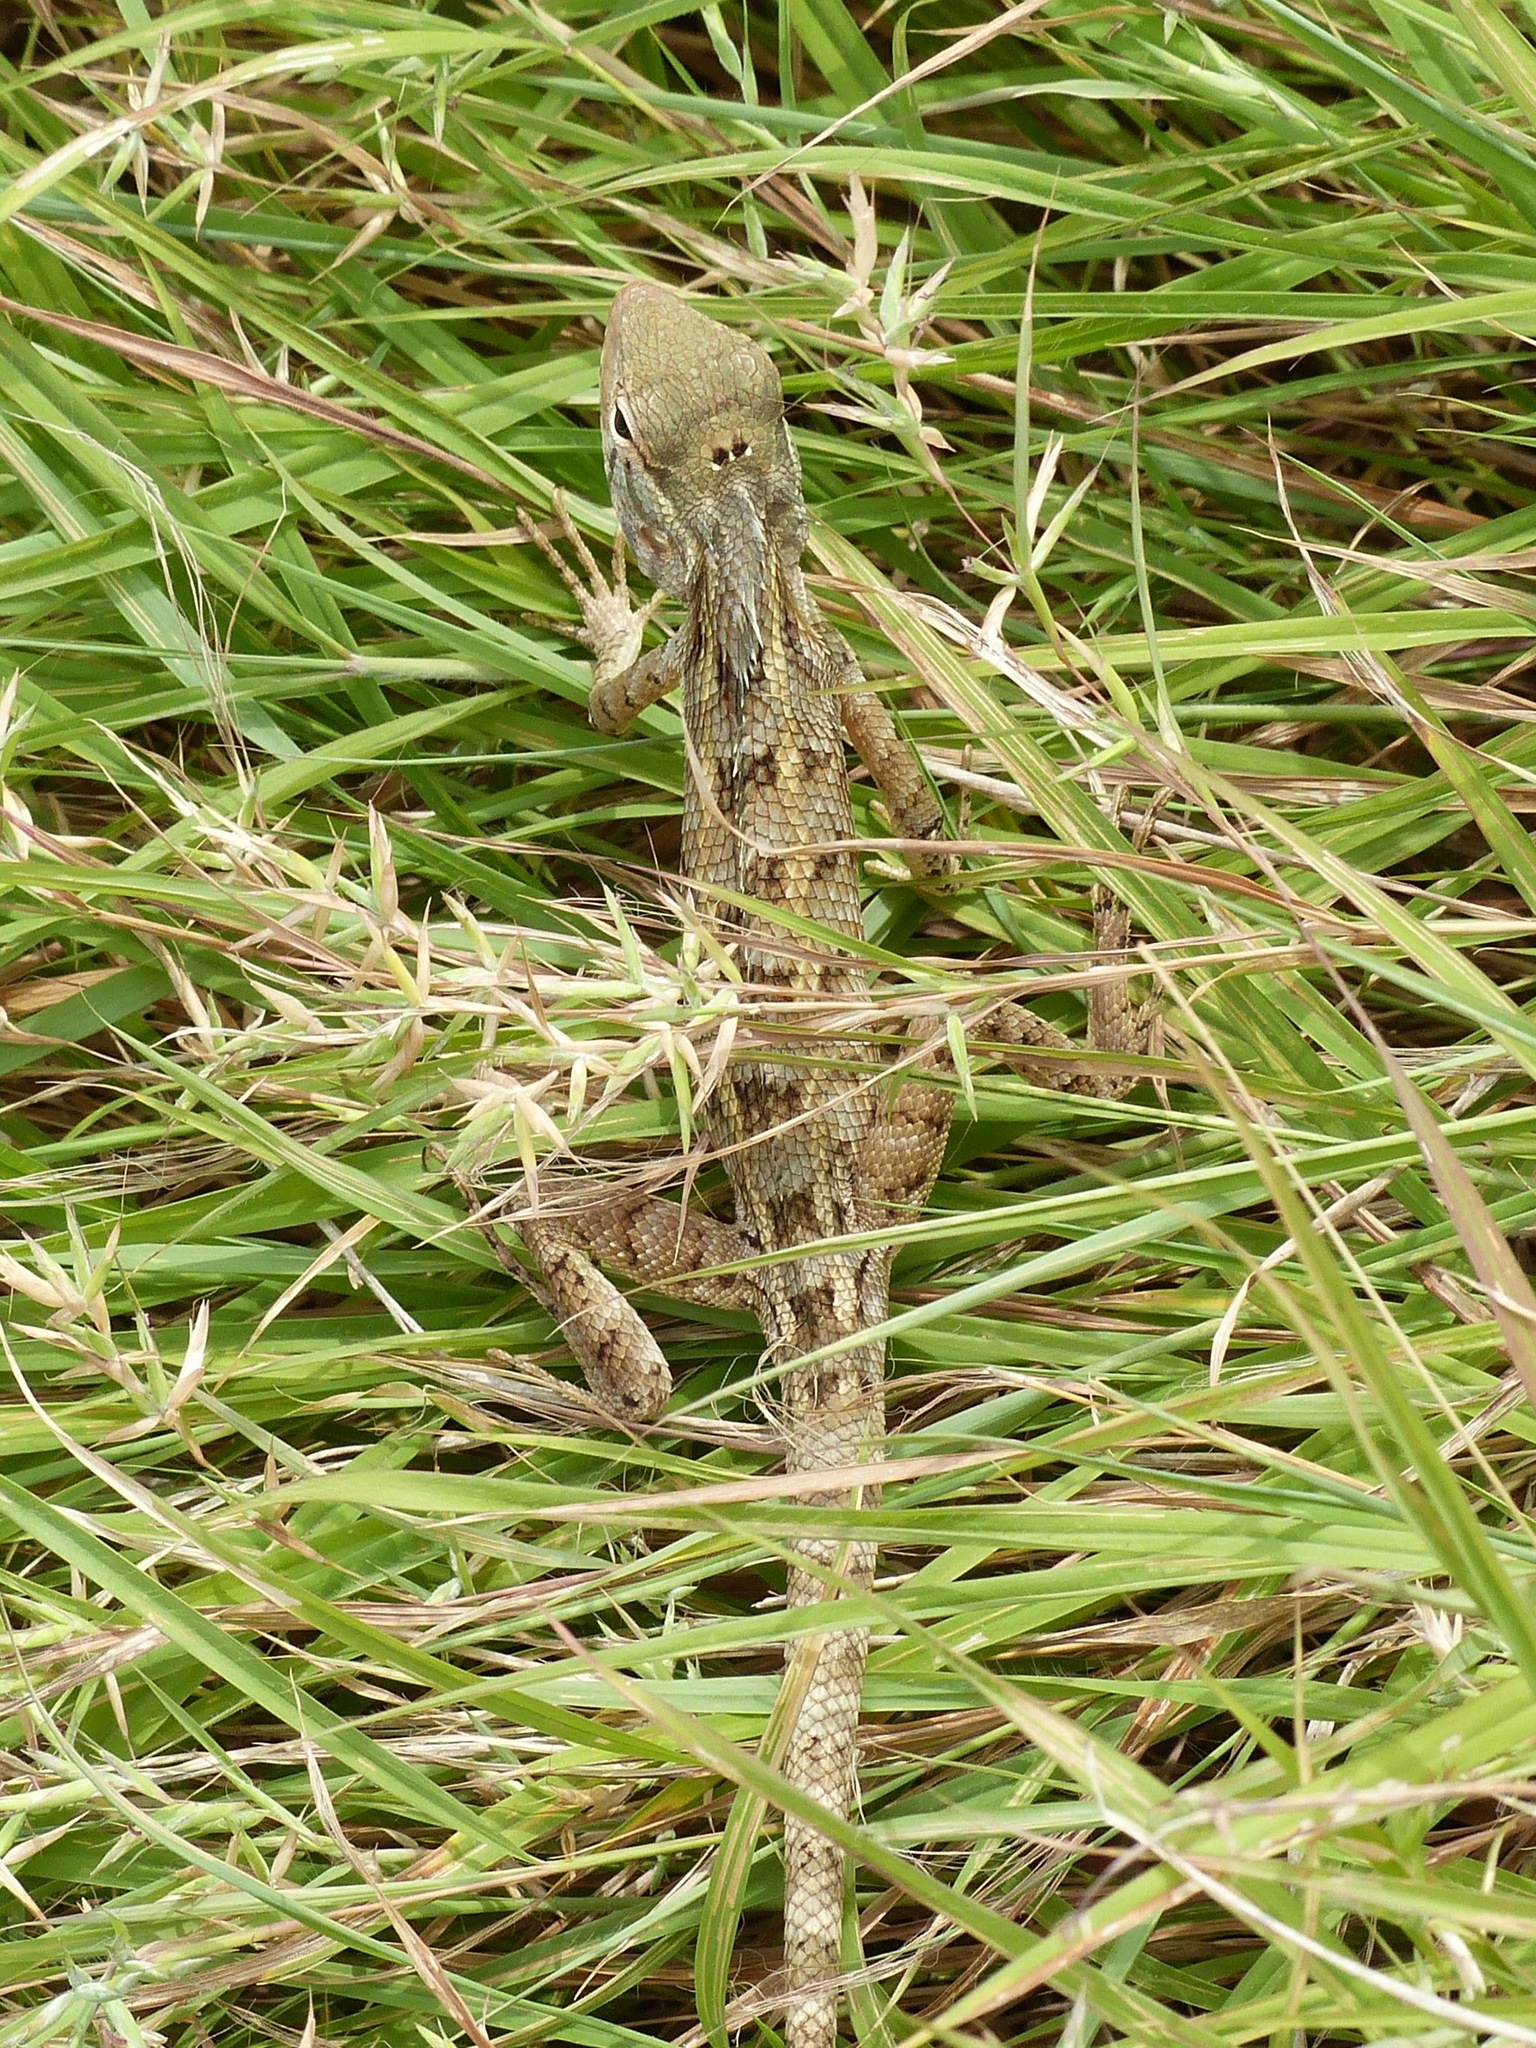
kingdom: Animalia
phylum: Chordata
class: Squamata
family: Agamidae
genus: Calotes
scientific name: Calotes versicolor
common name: Oriental garden lizard
